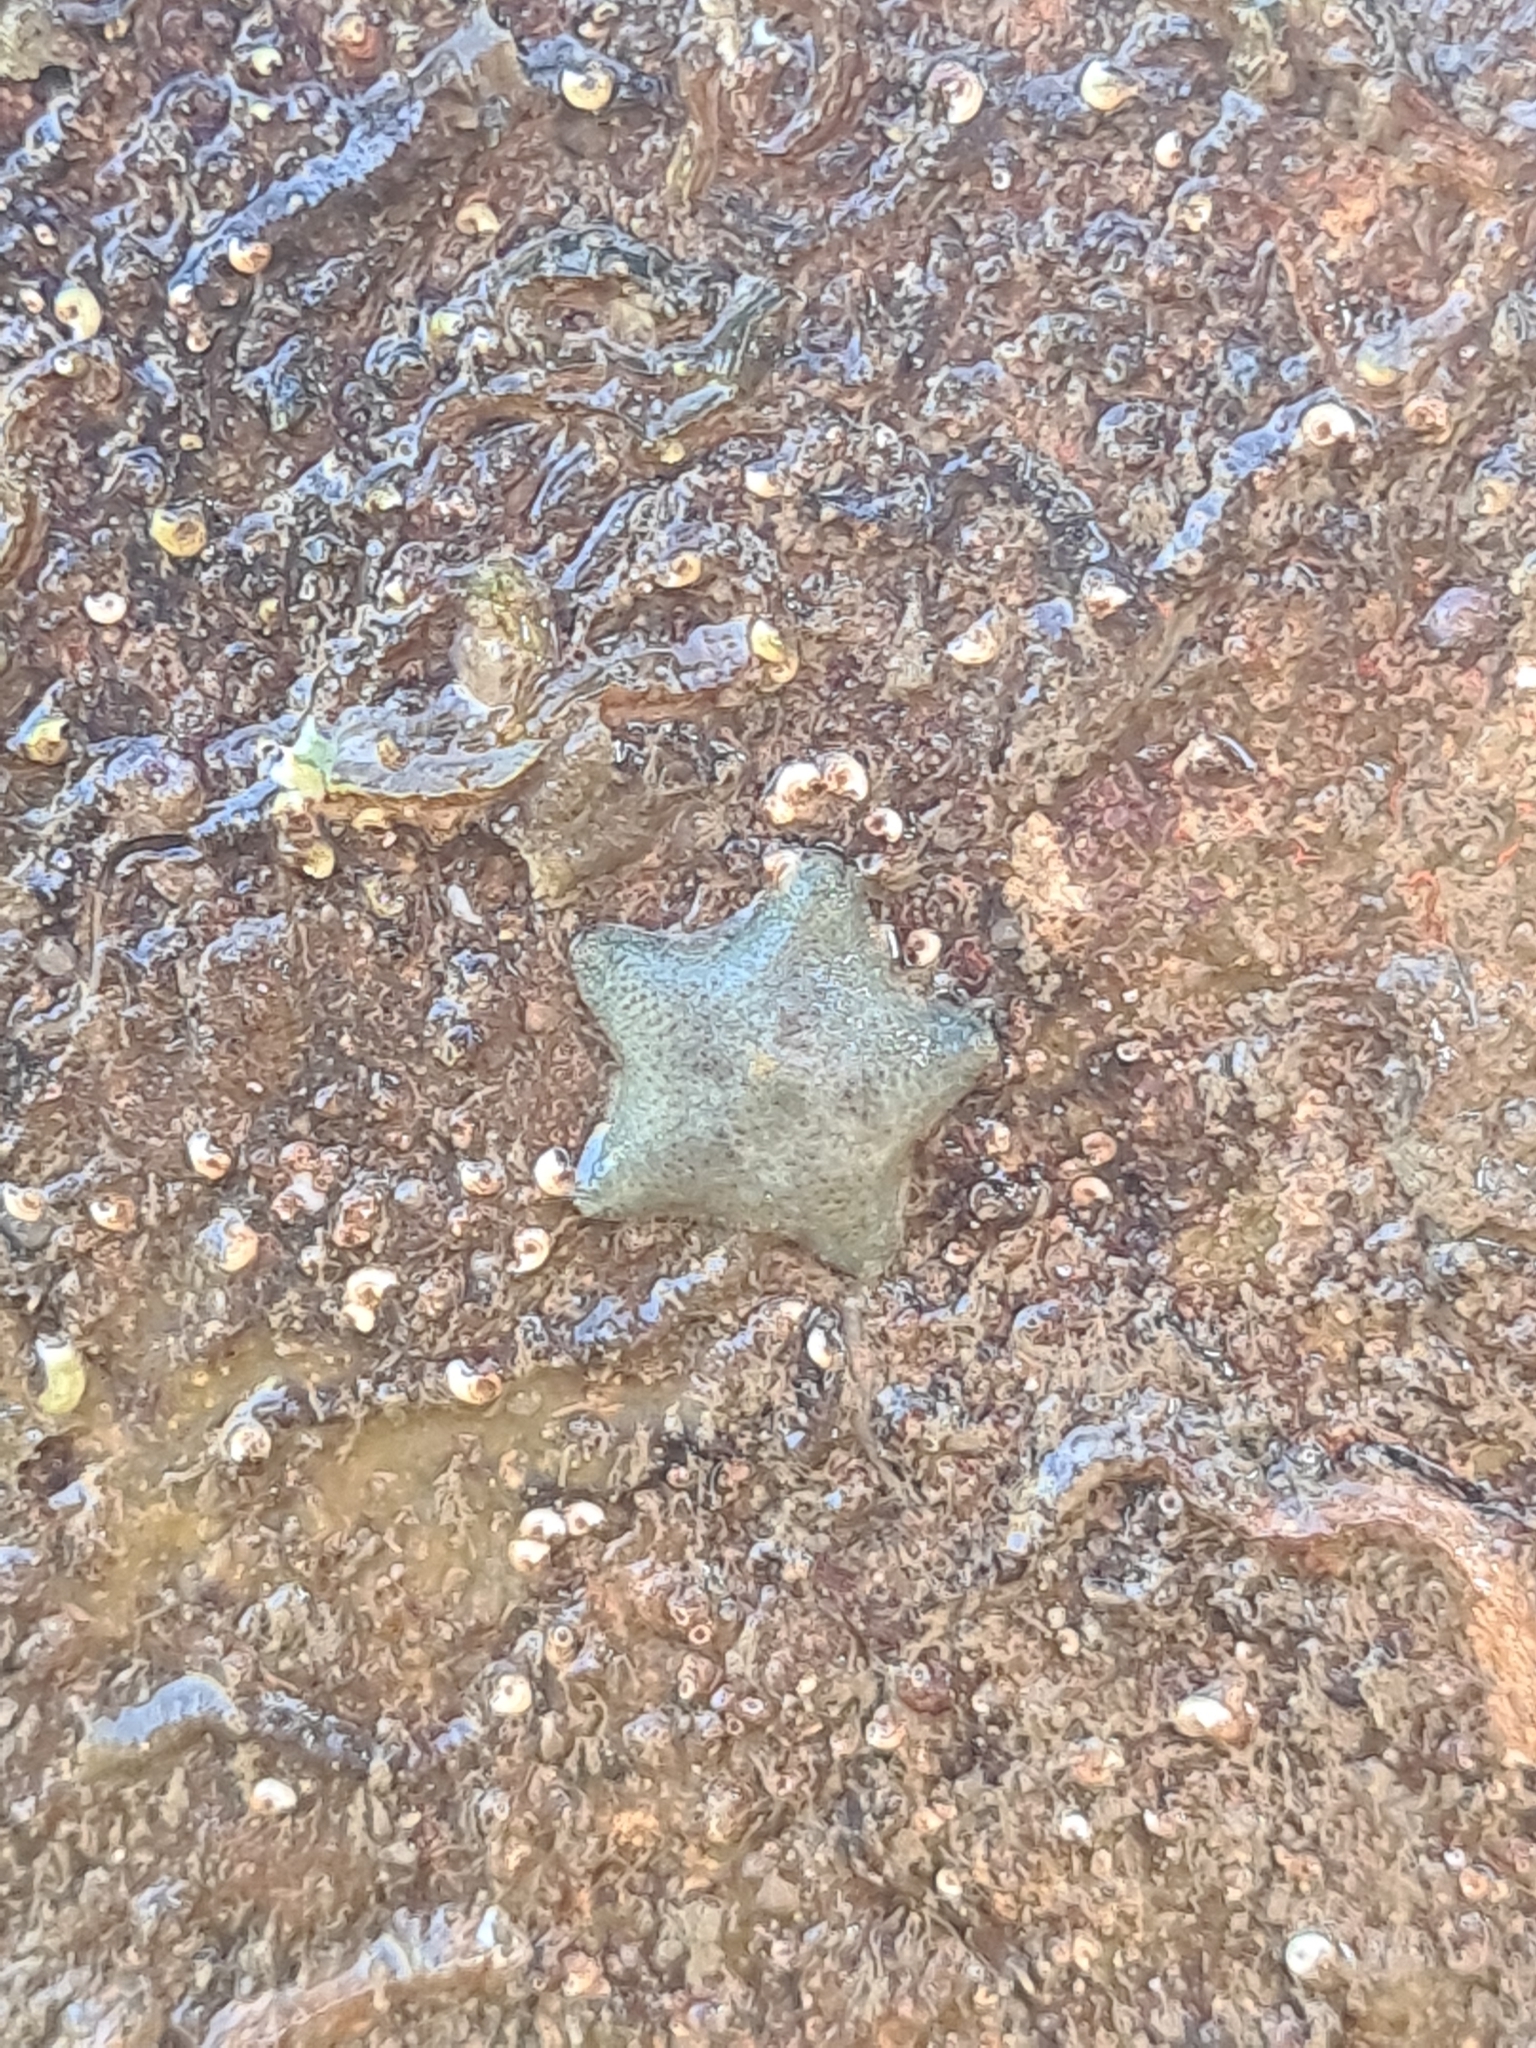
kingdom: Animalia
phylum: Echinodermata
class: Asteroidea
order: Valvatida
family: Asterinidae
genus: Asterina
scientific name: Asterina gibbosa
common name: Cushion star
